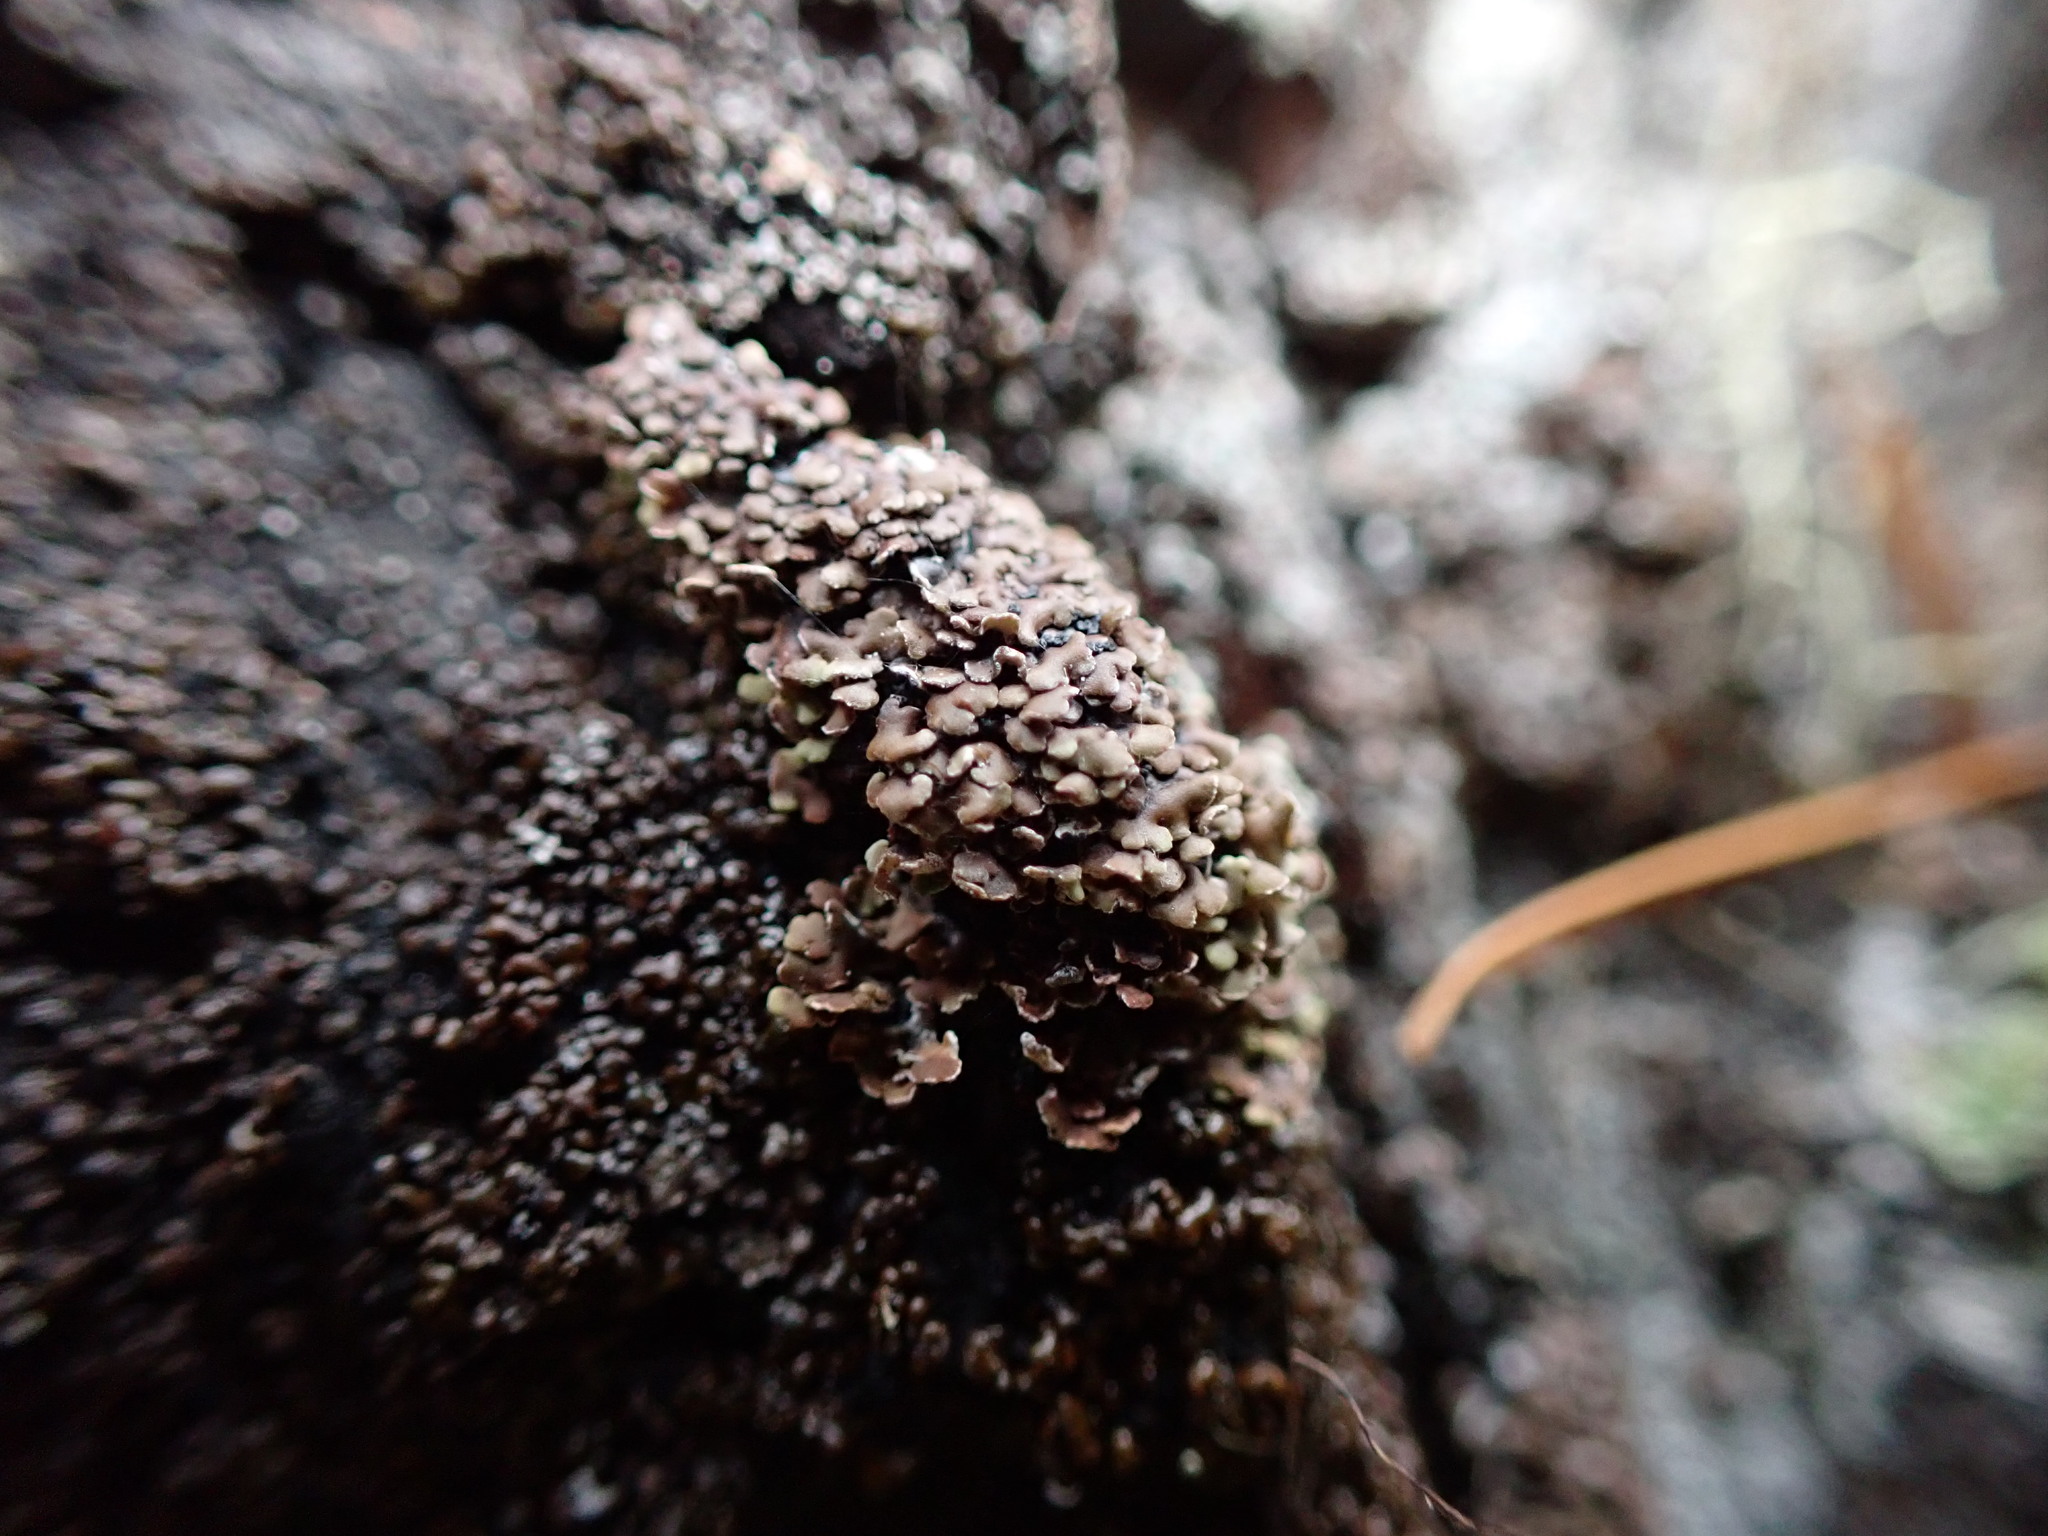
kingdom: Fungi
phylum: Ascomycota
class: Lecanoromycetes
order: Umbilicariales
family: Ophioparmaceae
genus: Hypocenomyce
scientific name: Hypocenomyce scalaris
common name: Common clam lichen
